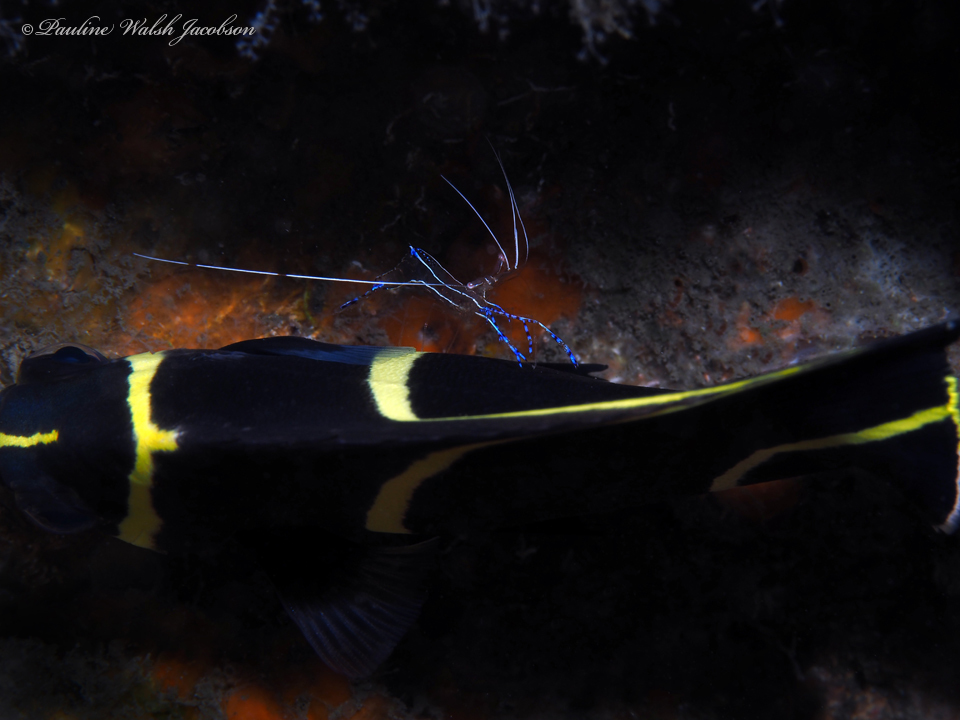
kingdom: Animalia
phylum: Arthropoda
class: Malacostraca
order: Decapoda
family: Palaemonidae
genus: Ancylomenes
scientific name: Ancylomenes pedersoni
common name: Pederson's cleaning shrimp
